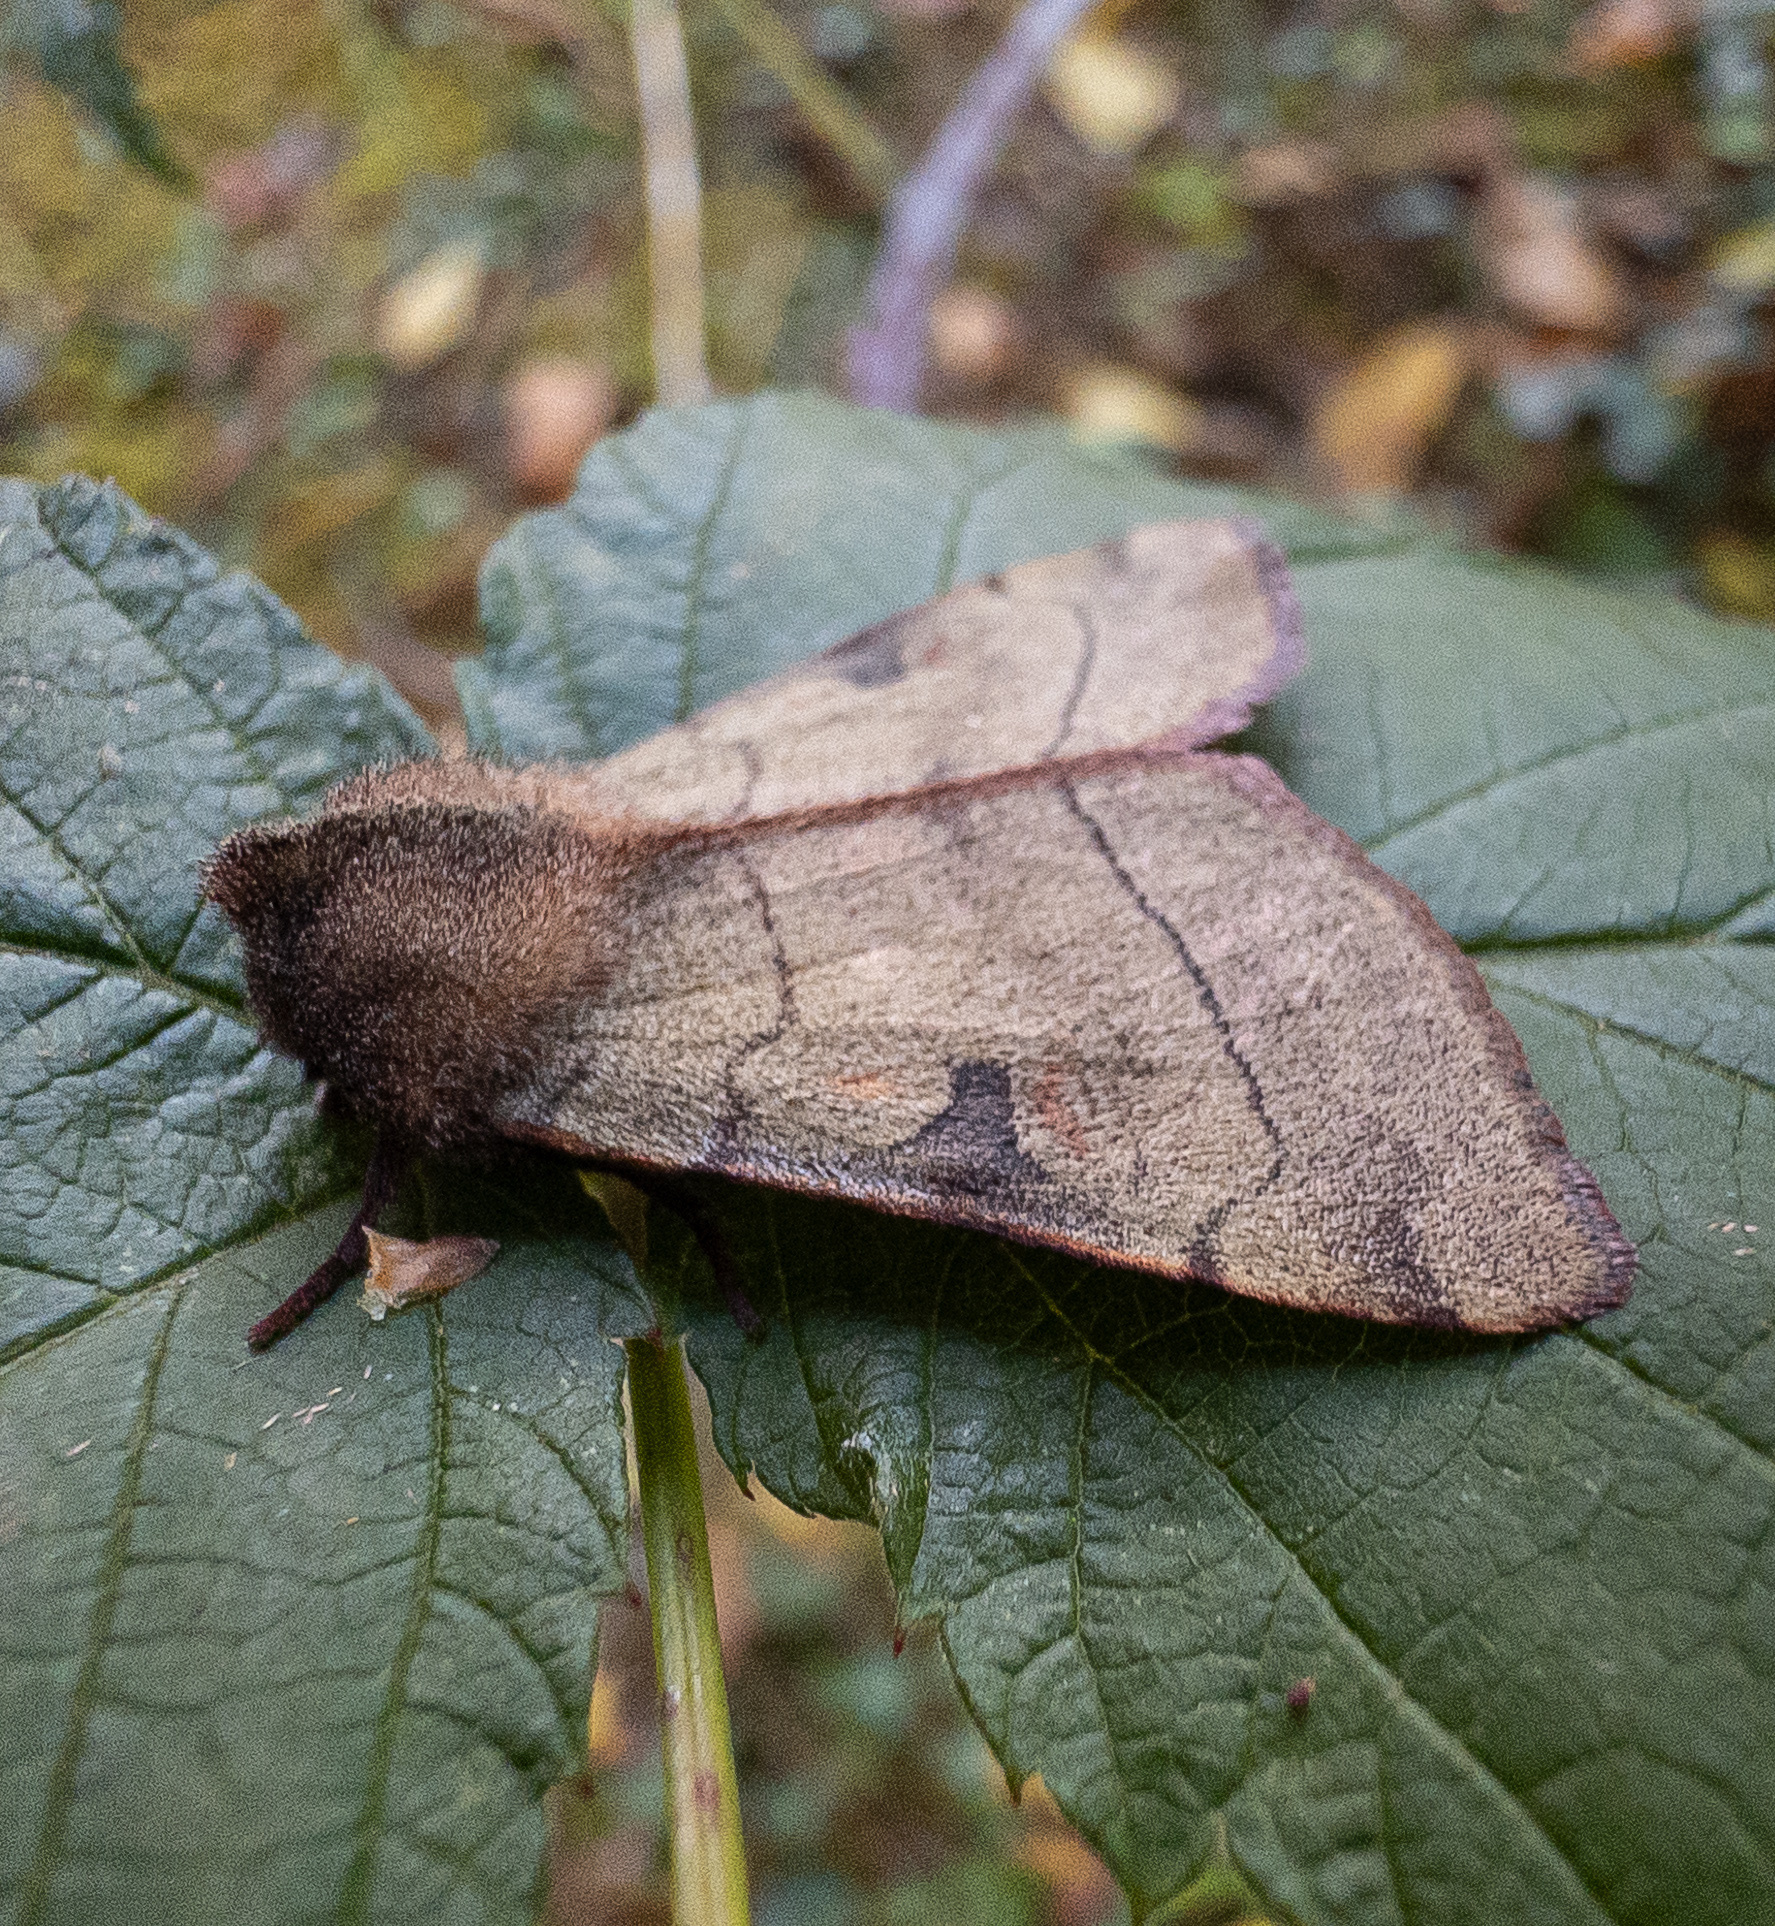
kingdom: Animalia
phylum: Arthropoda
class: Insecta
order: Lepidoptera
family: Noctuidae
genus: Choephora
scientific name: Choephora fungorum
